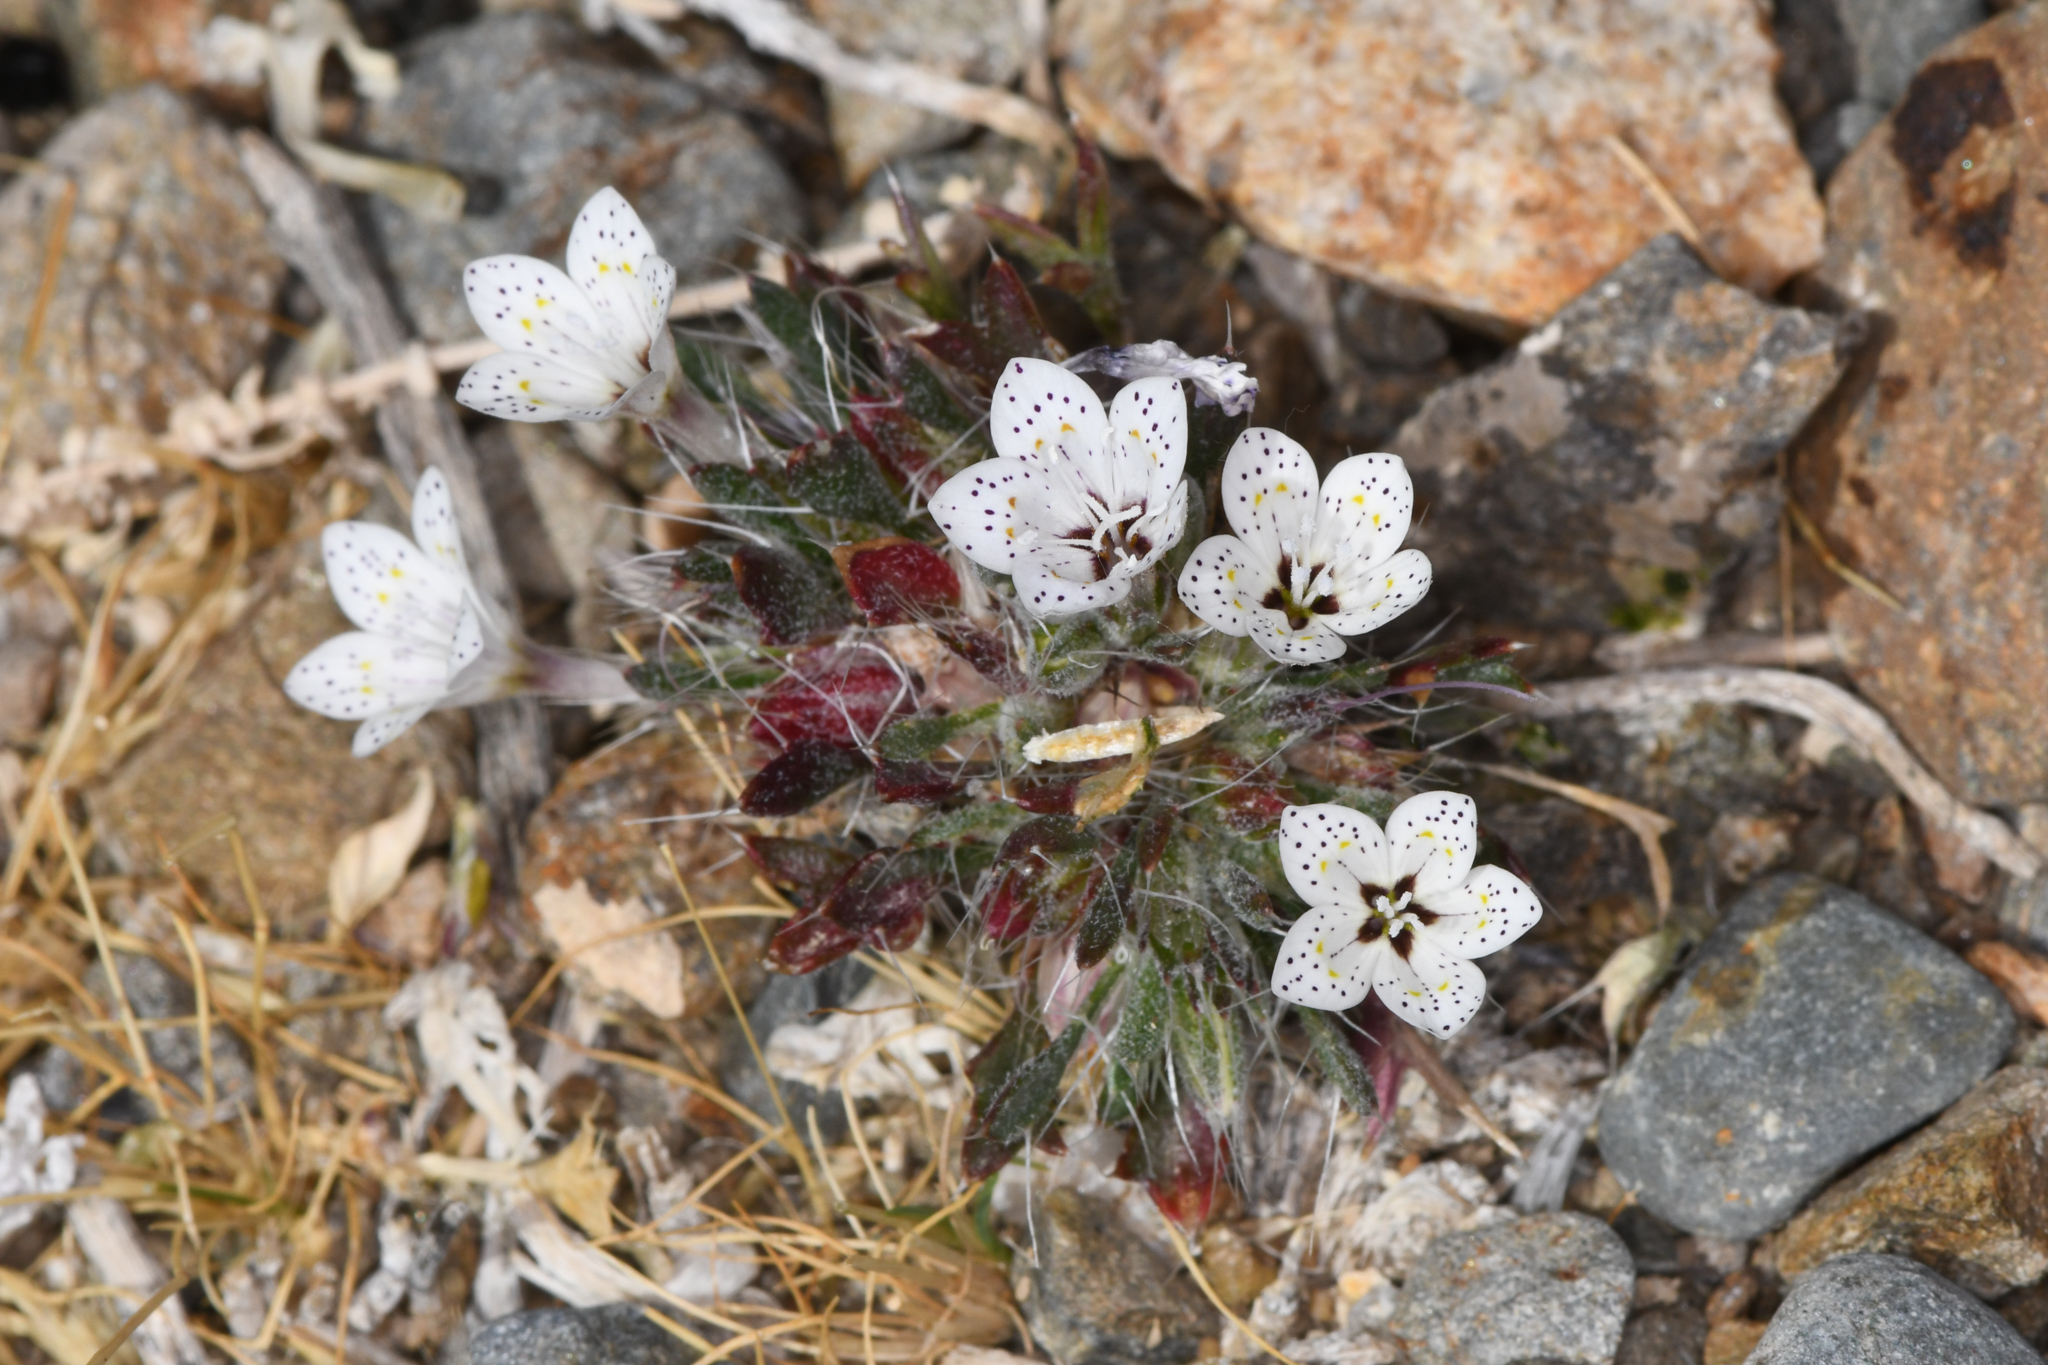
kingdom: Plantae
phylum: Tracheophyta
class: Magnoliopsida
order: Ericales
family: Polemoniaceae
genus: Langloisia
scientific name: Langloisia setosissima
